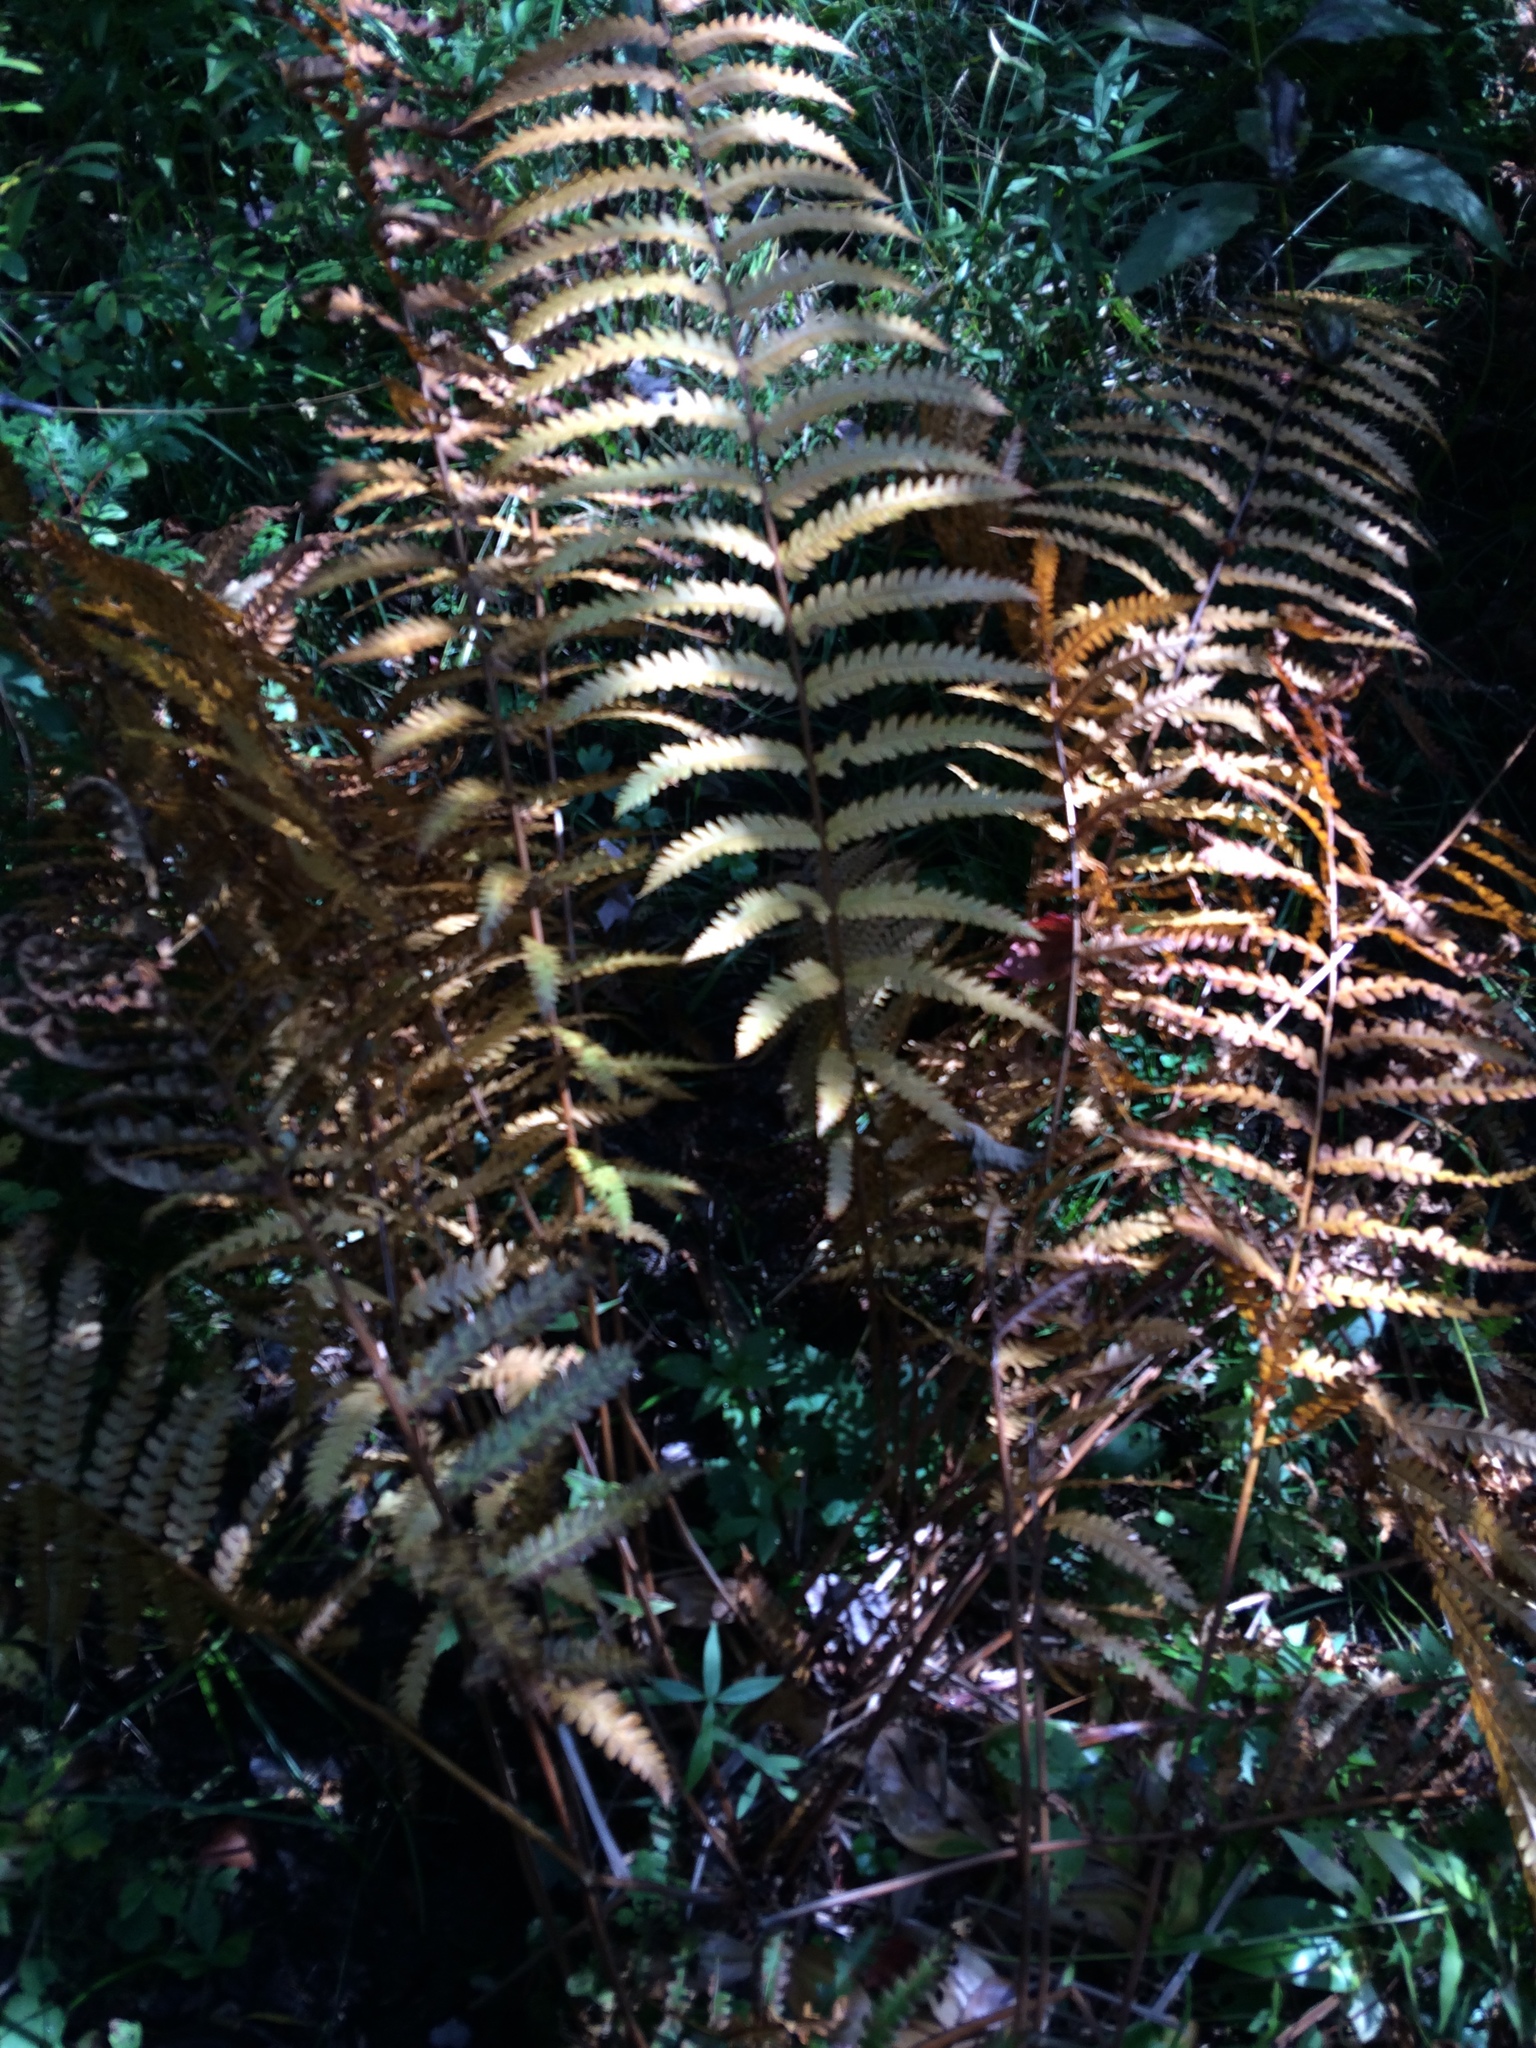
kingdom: Plantae
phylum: Tracheophyta
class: Polypodiopsida
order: Osmundales
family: Osmundaceae
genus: Osmundastrum
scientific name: Osmundastrum cinnamomeum
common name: Cinnamon fern
